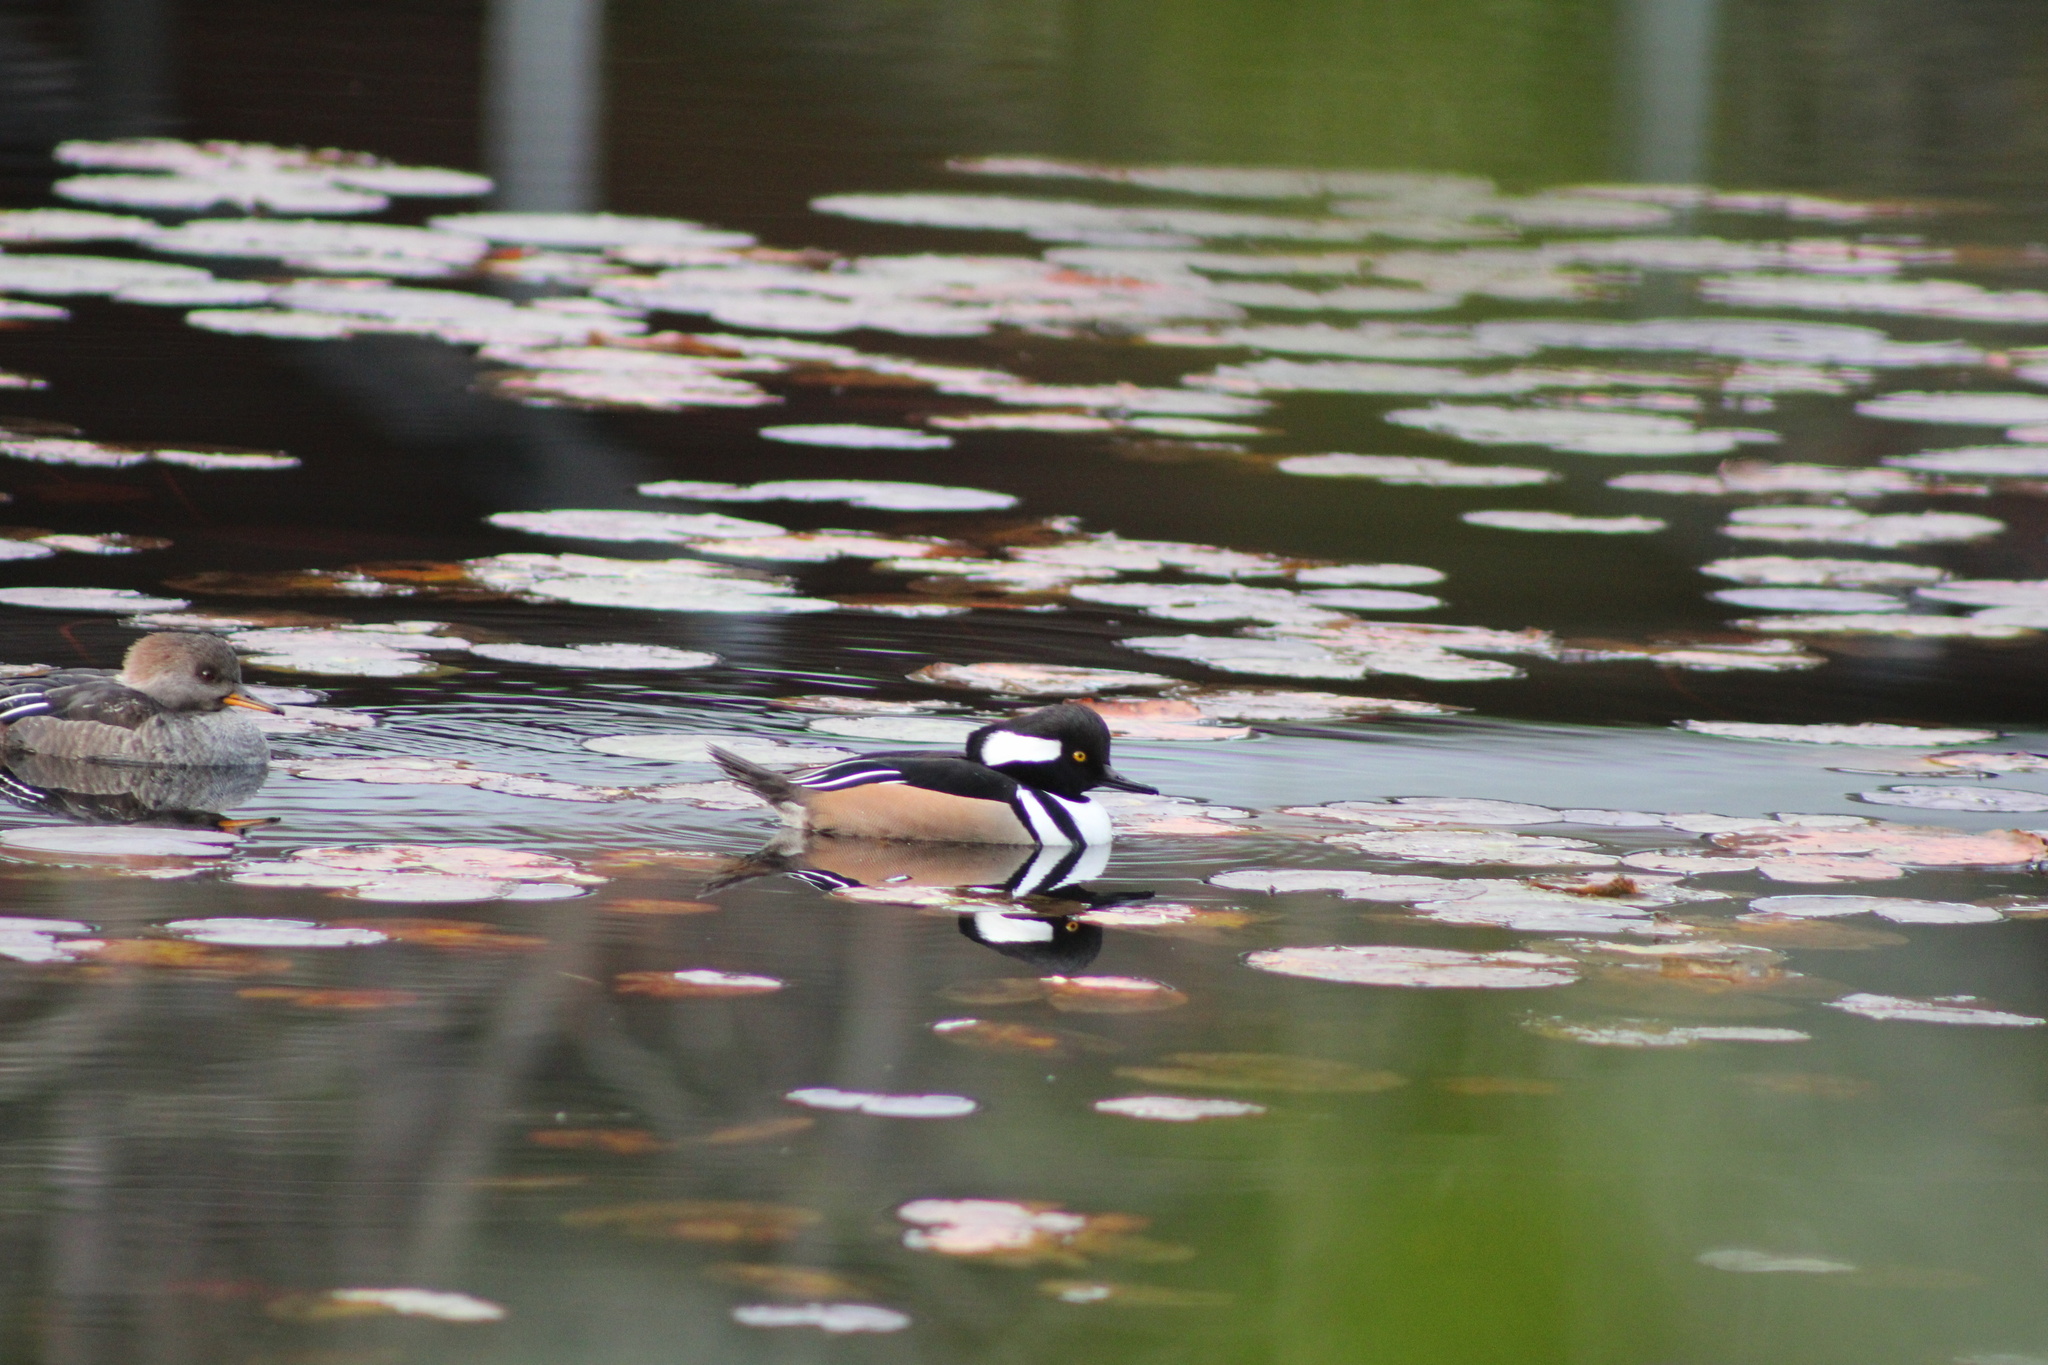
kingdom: Animalia
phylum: Chordata
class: Aves
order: Anseriformes
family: Anatidae
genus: Lophodytes
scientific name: Lophodytes cucullatus
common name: Hooded merganser
